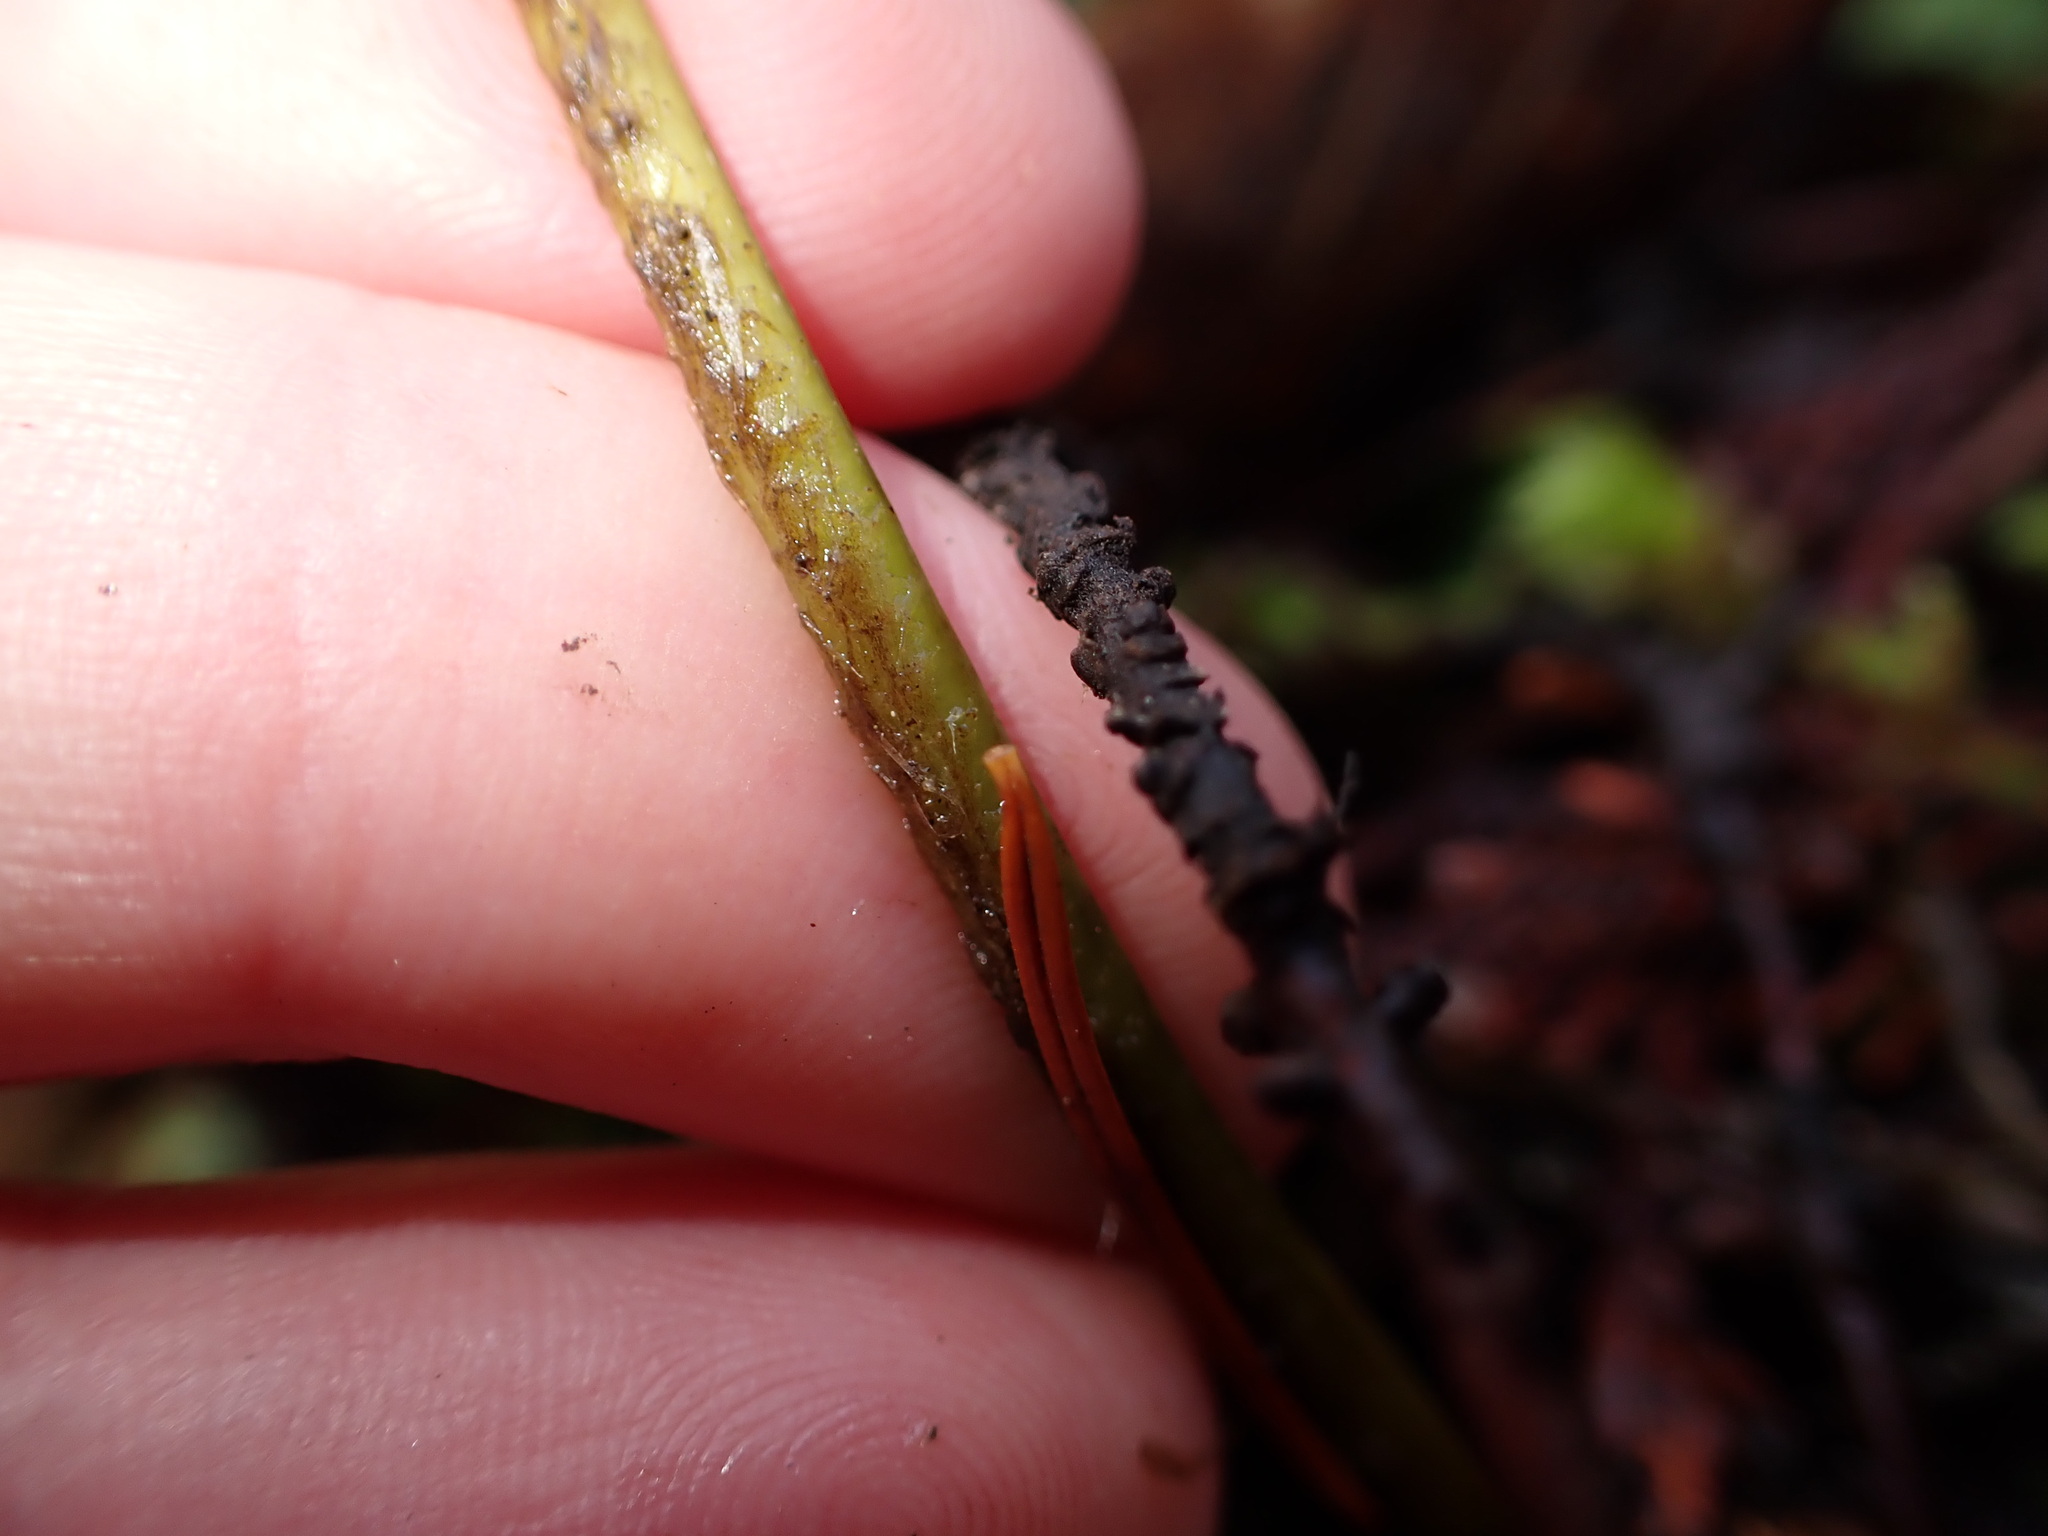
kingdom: Plantae
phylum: Tracheophyta
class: Polypodiopsida
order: Polypodiales
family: Dryopteridaceae
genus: Polystichum
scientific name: Polystichum munitum
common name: Western sword-fern
